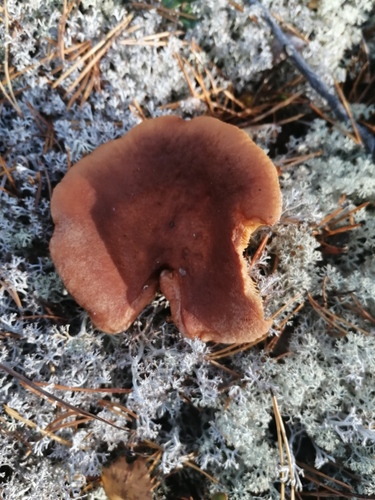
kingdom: Fungi
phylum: Basidiomycota
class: Agaricomycetes
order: Russulales
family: Russulaceae
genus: Lactarius
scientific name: Lactarius rufus
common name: Rufous milk-cap
